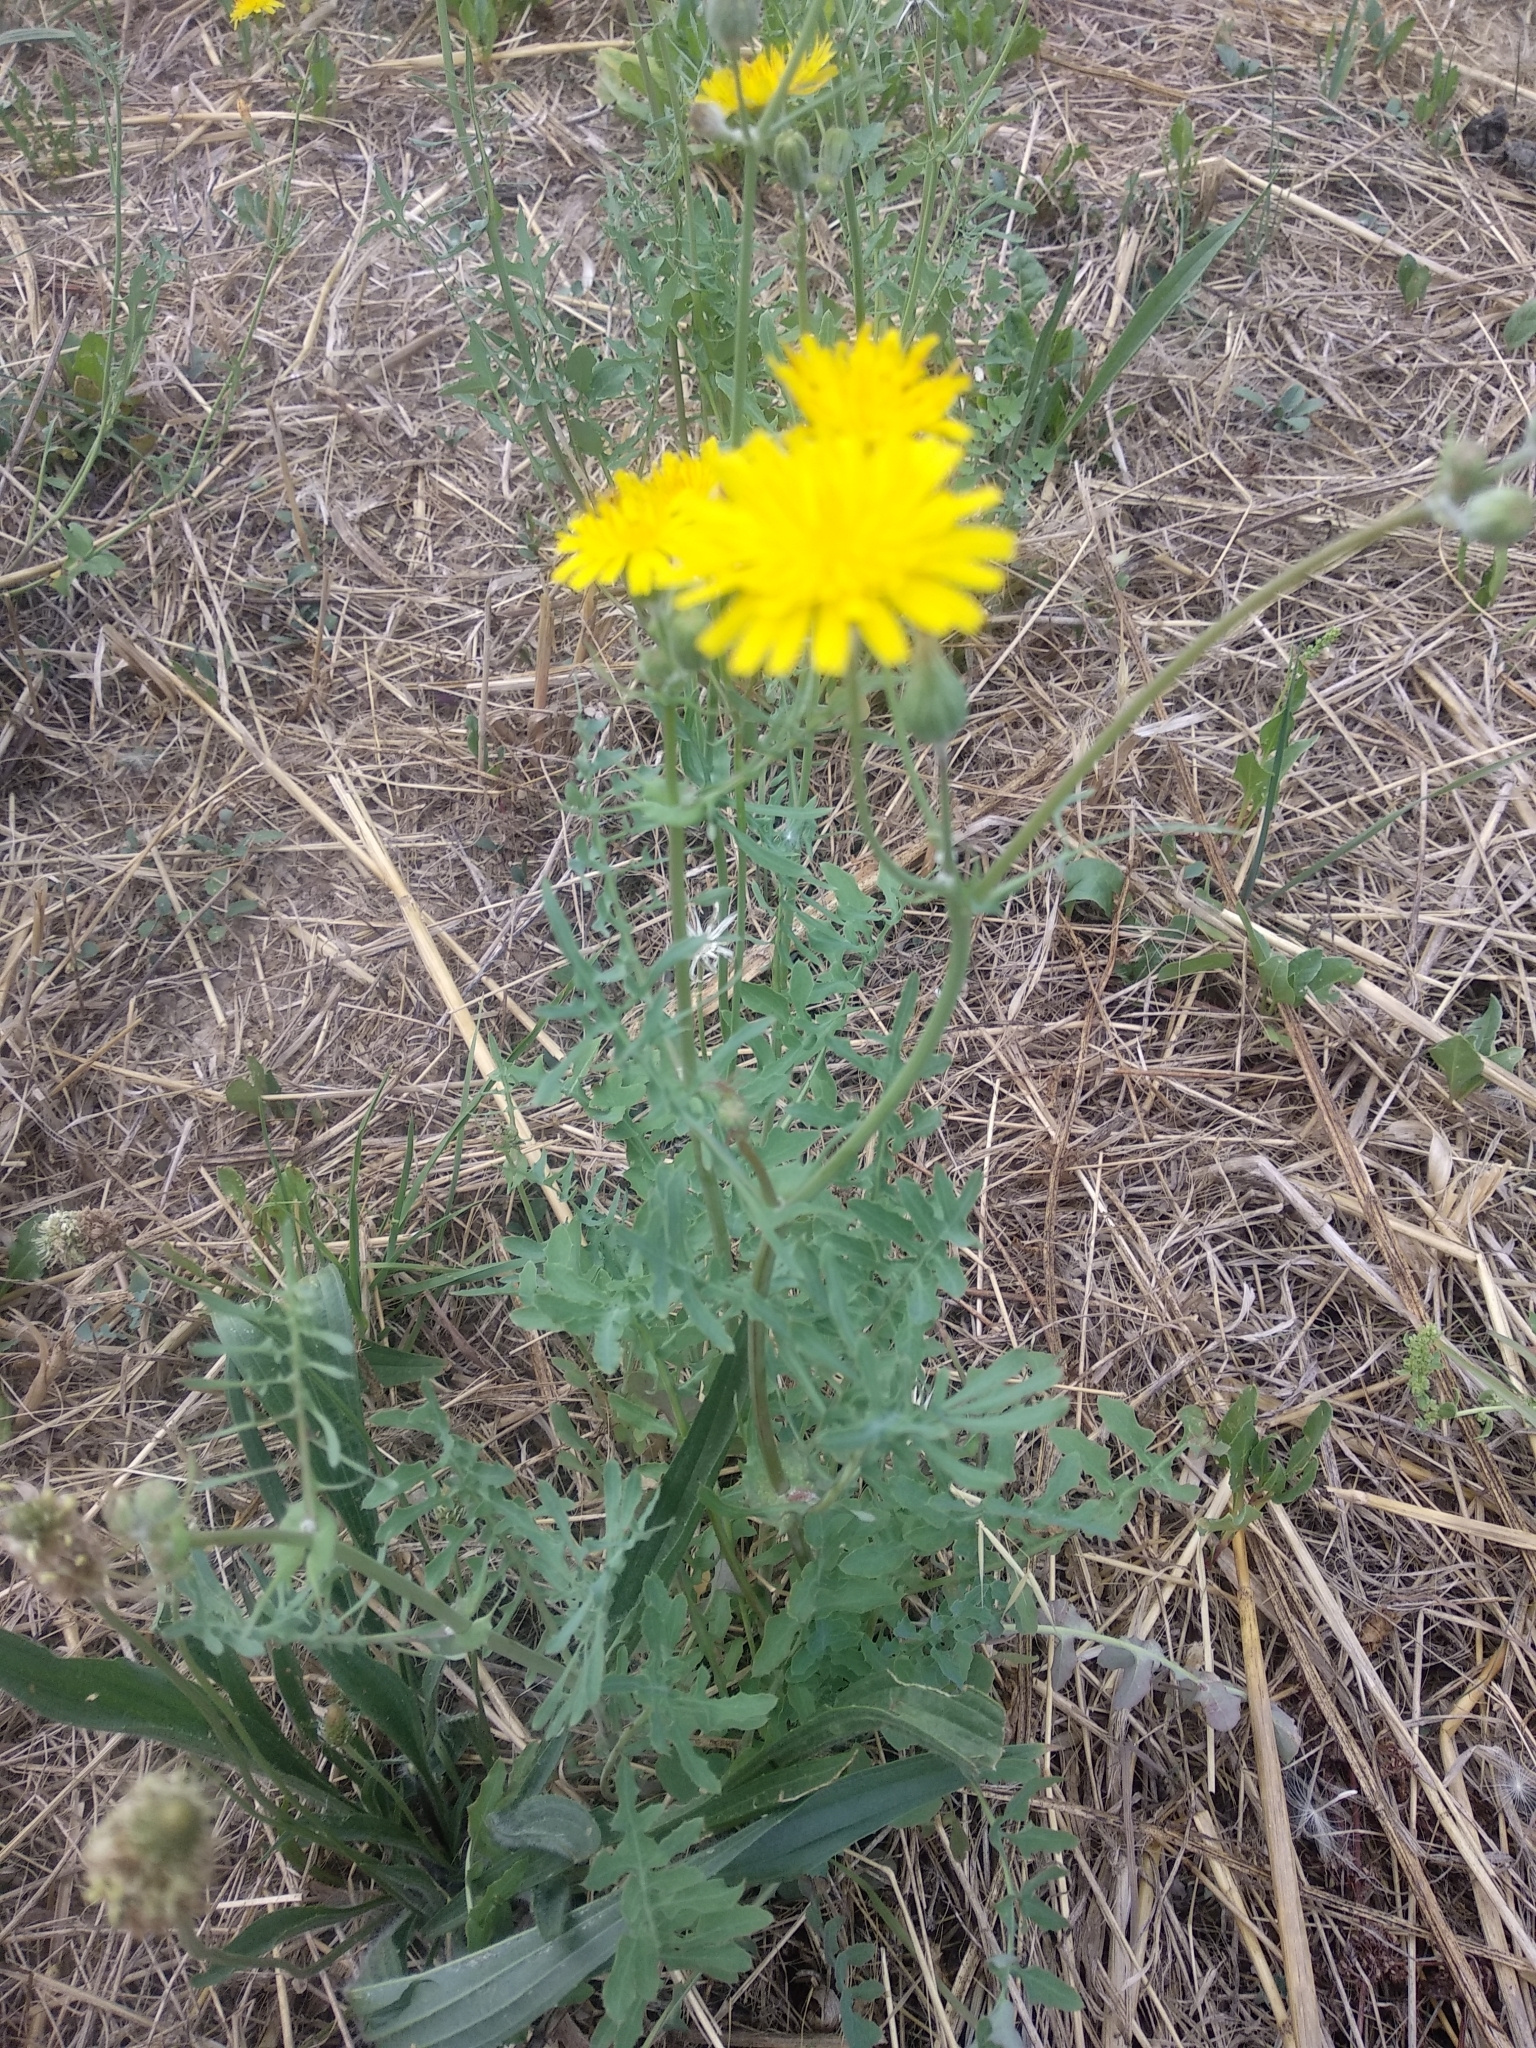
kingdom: Plantae
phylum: Tracheophyta
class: Magnoliopsida
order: Asterales
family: Asteraceae
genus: Sonchus
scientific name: Sonchus tenerrimus
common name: Clammy sowthistle
